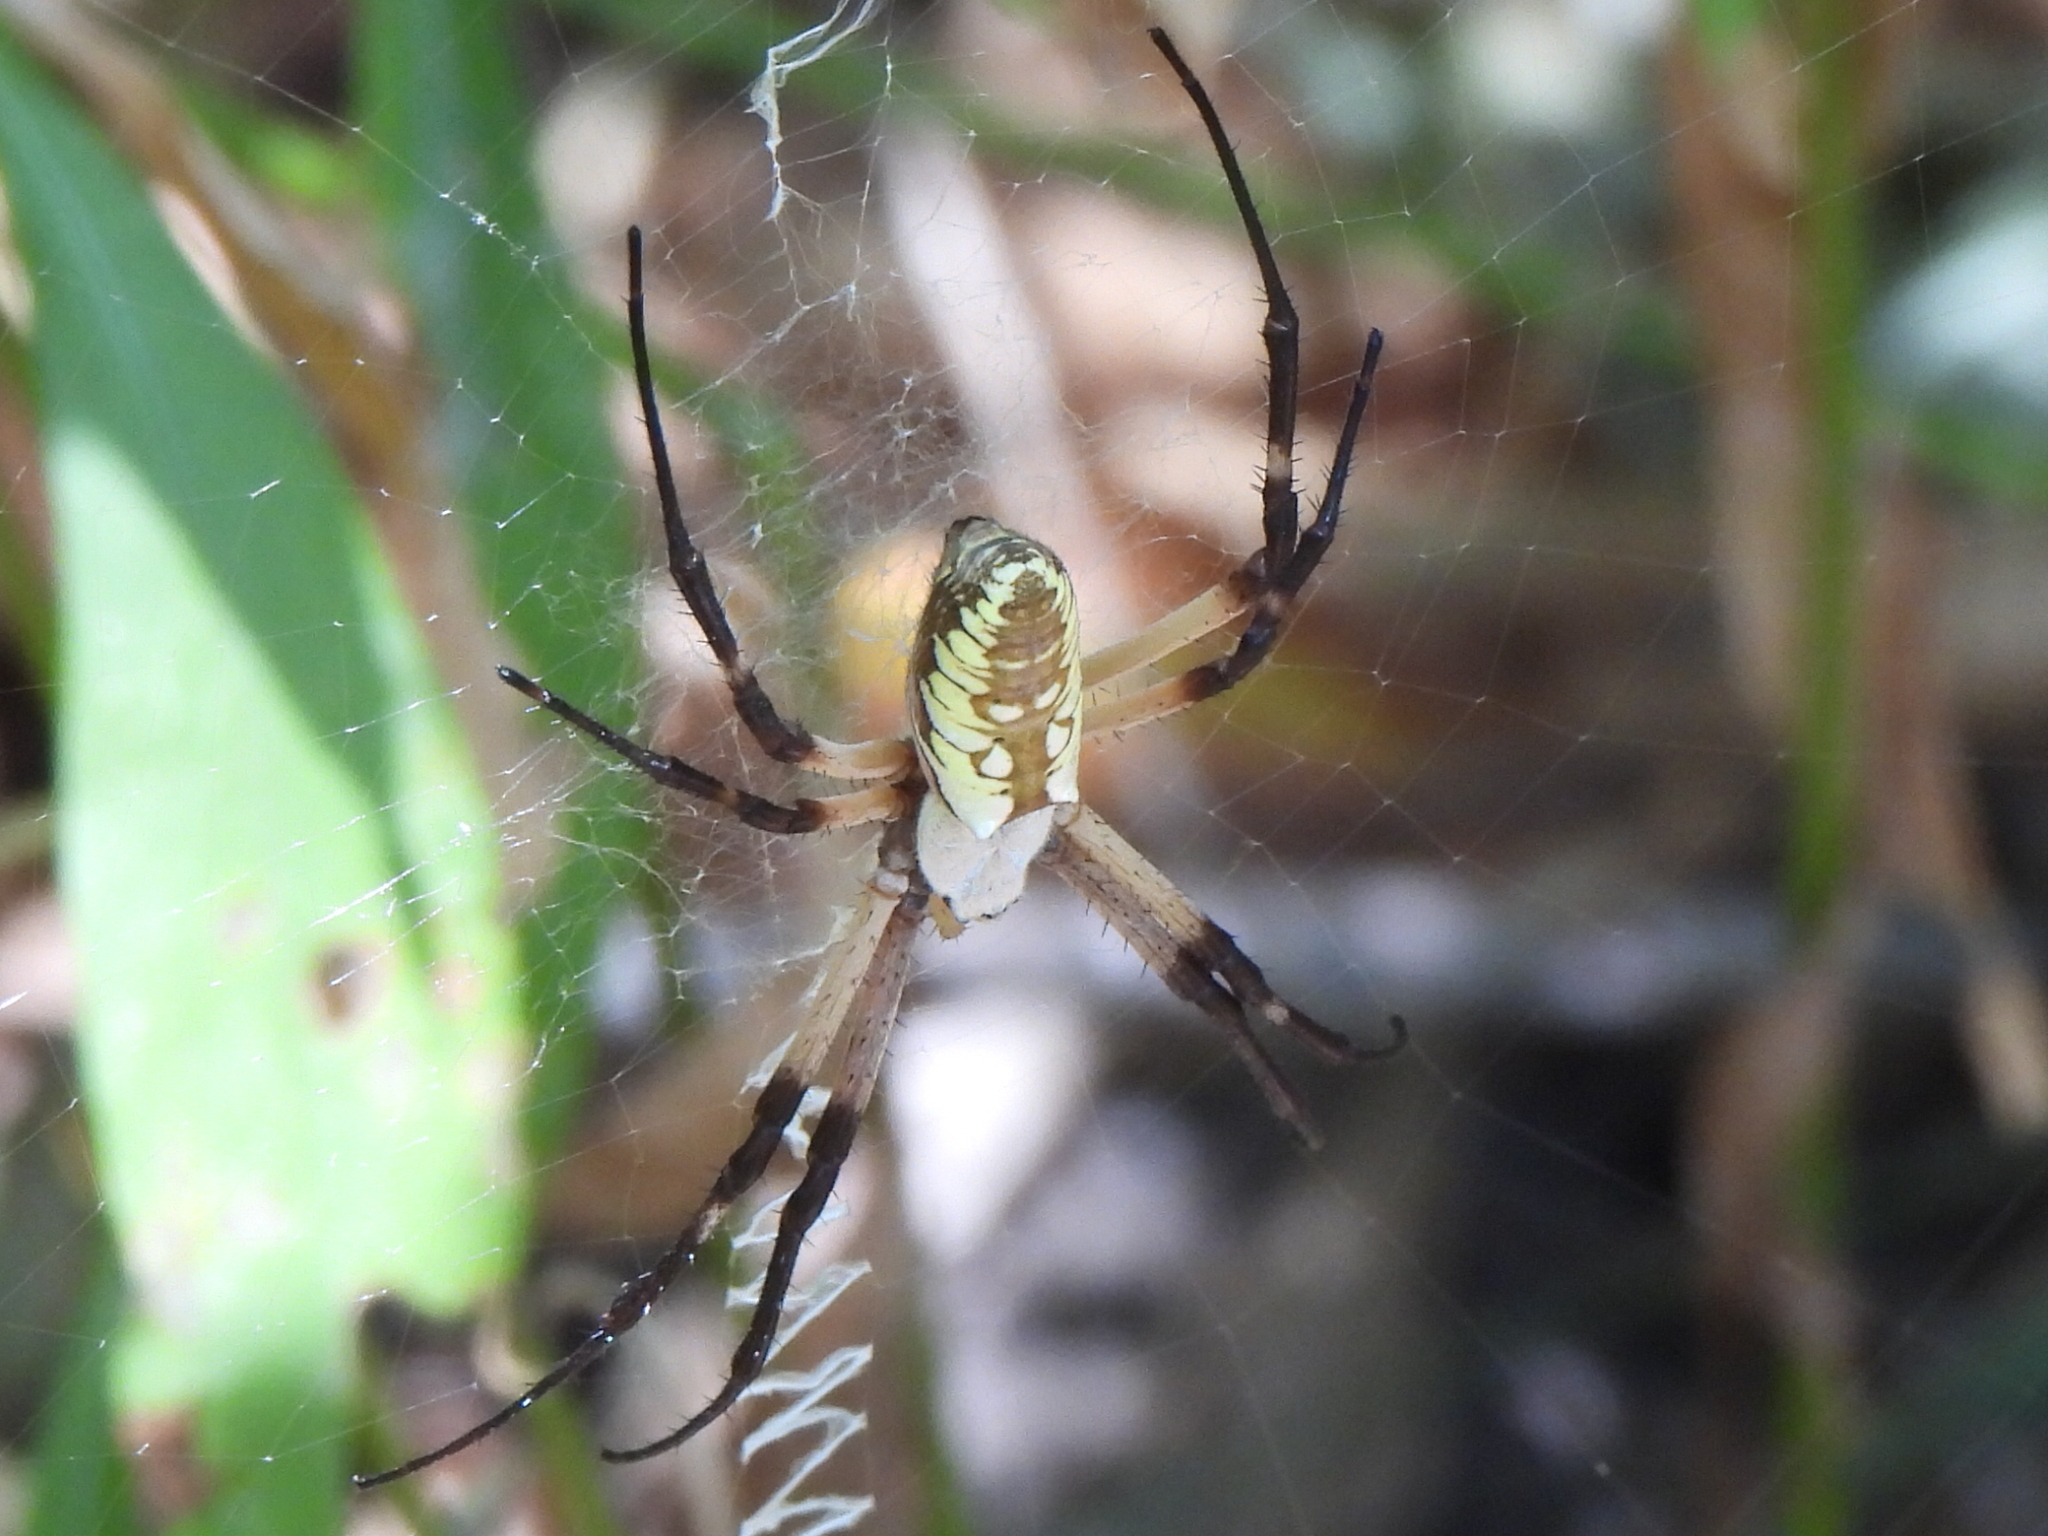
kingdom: Animalia
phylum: Arthropoda
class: Arachnida
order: Araneae
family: Araneidae
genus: Argiope
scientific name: Argiope aurantia
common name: Orb weavers
